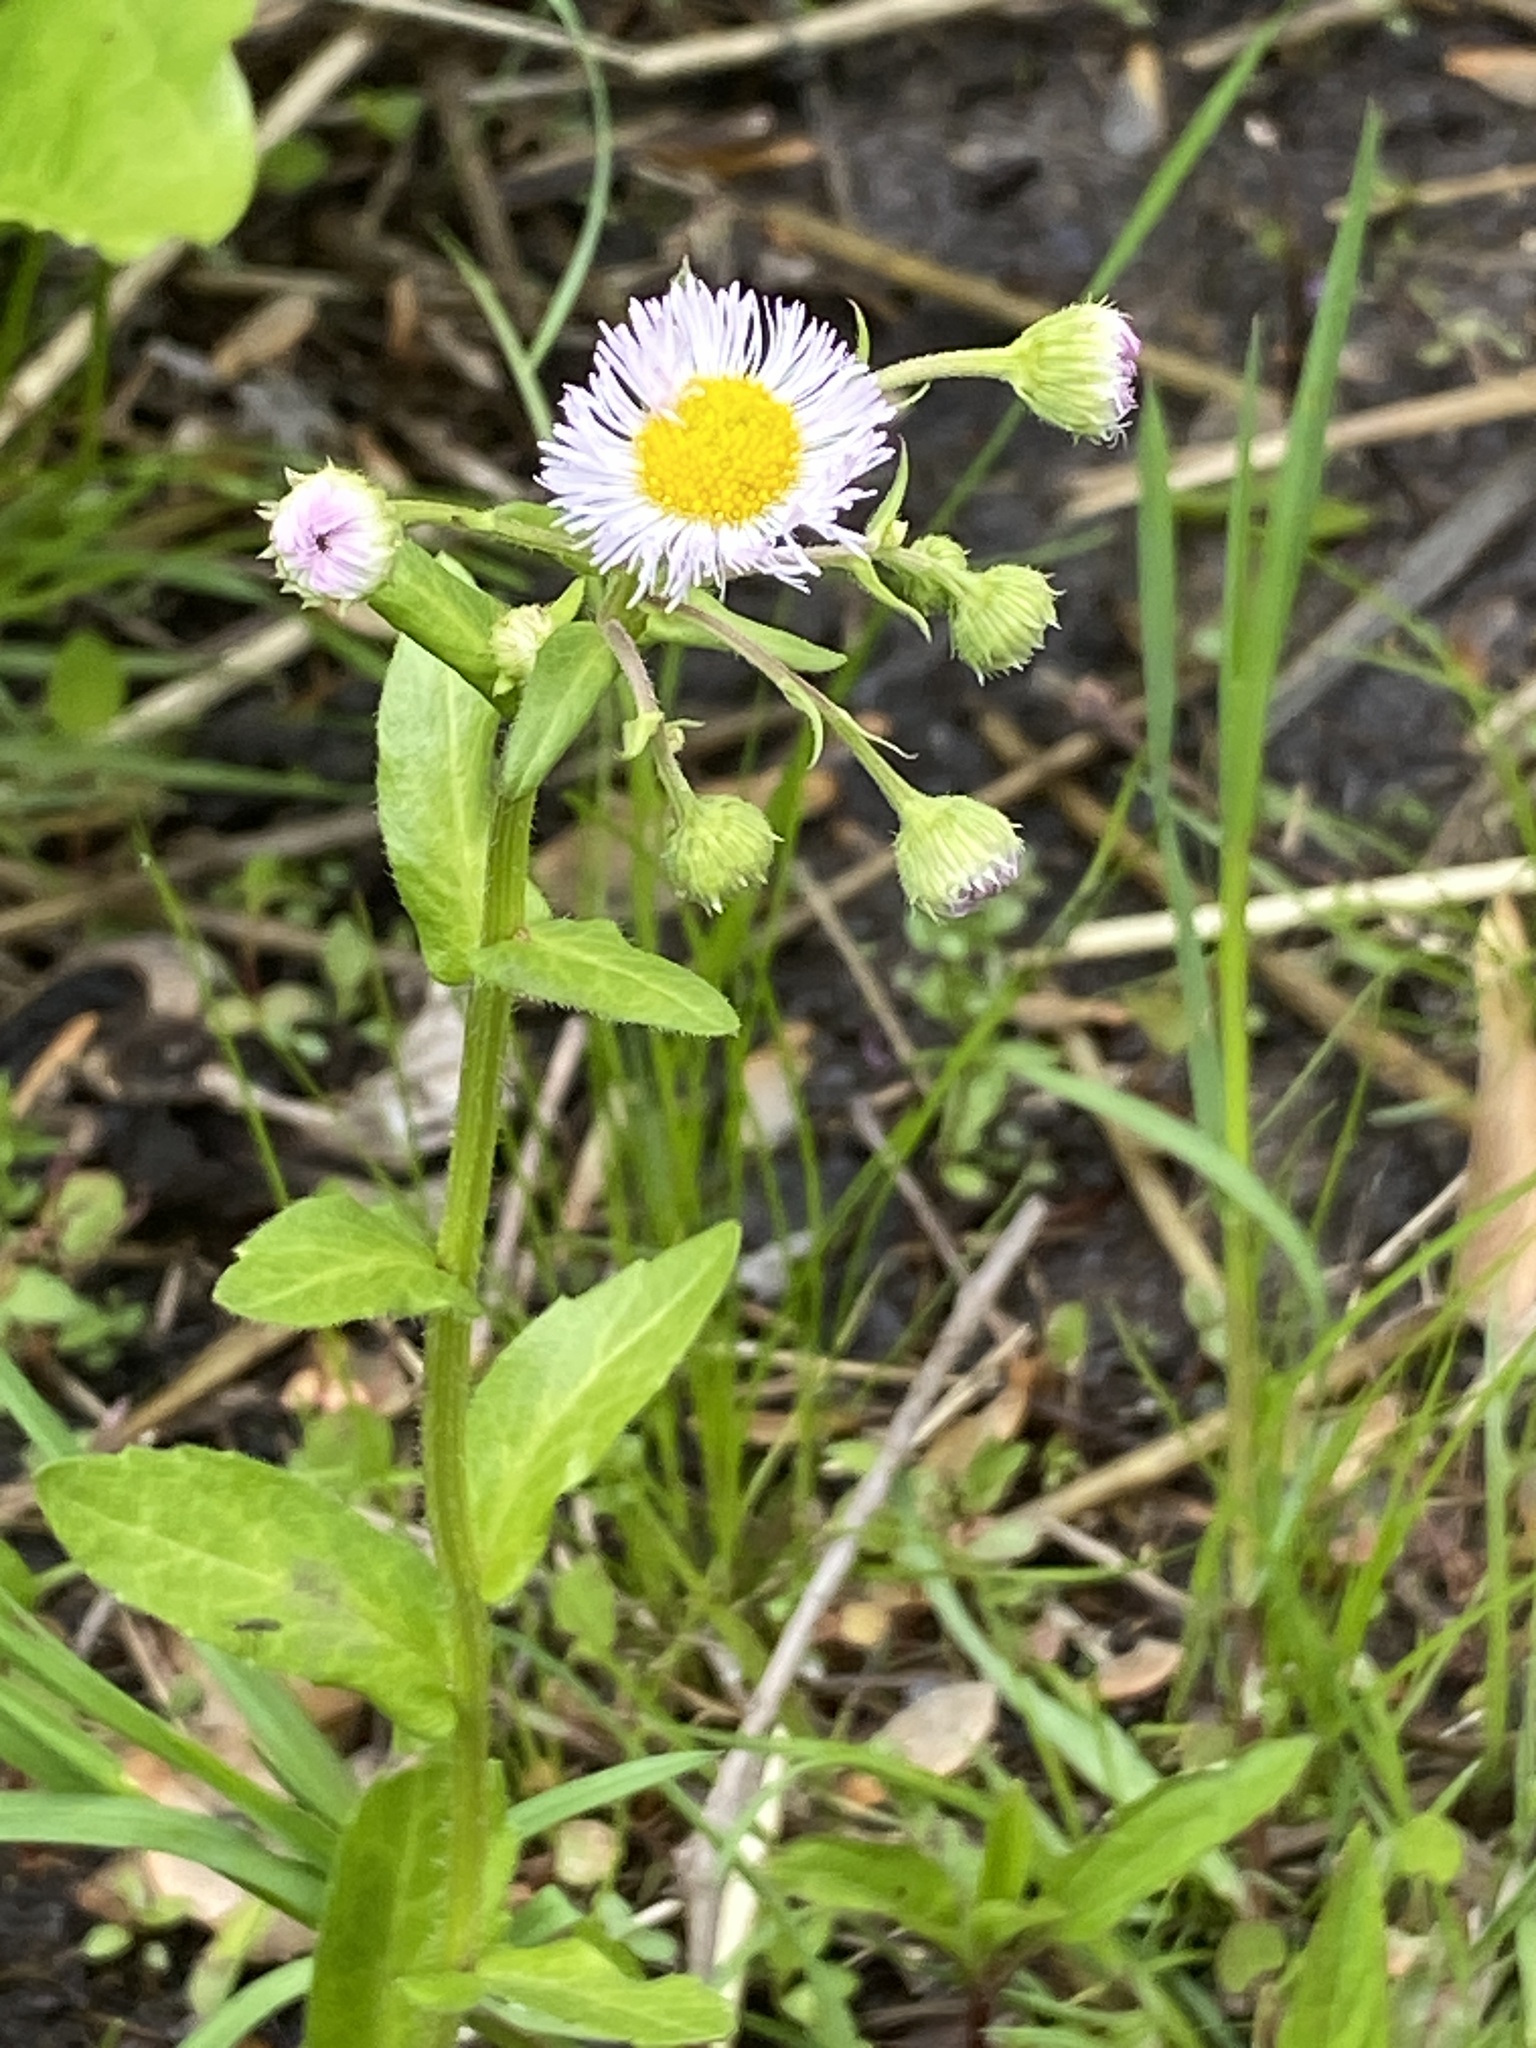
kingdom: Plantae
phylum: Tracheophyta
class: Magnoliopsida
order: Asterales
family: Asteraceae
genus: Erigeron
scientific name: Erigeron philadelphicus
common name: Robin's-plantain
